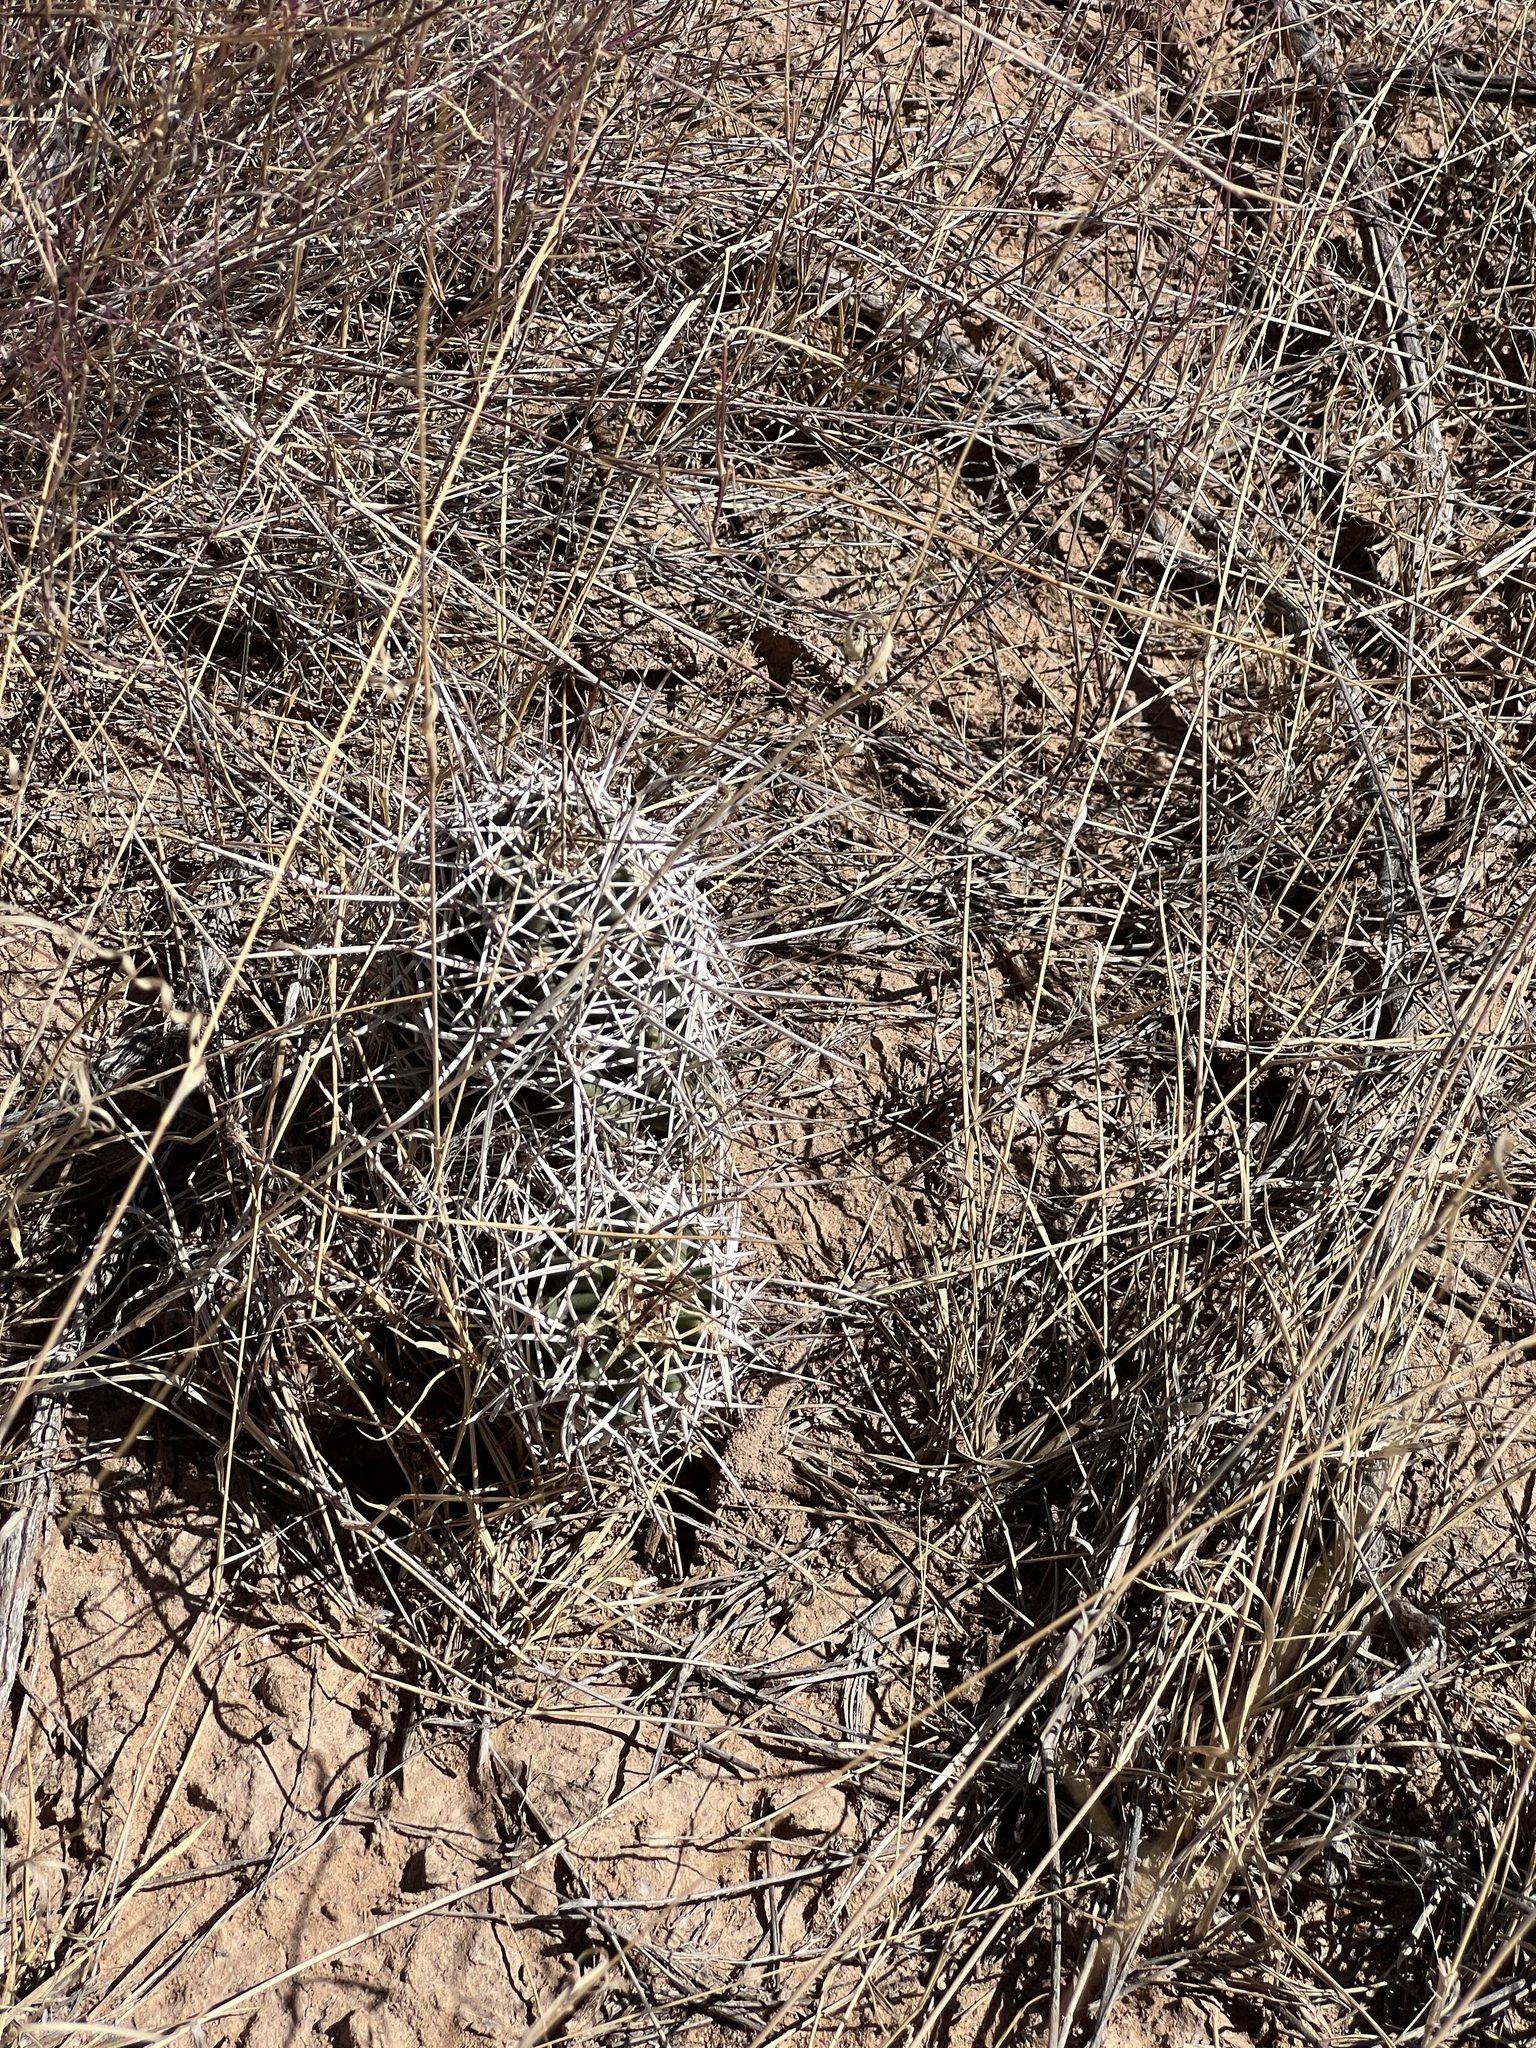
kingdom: Plantae
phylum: Tracheophyta
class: Magnoliopsida
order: Caryophyllales
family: Cactaceae
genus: Echinocereus
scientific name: Echinocereus fendleri
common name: Fendler's hedgehog cactus
